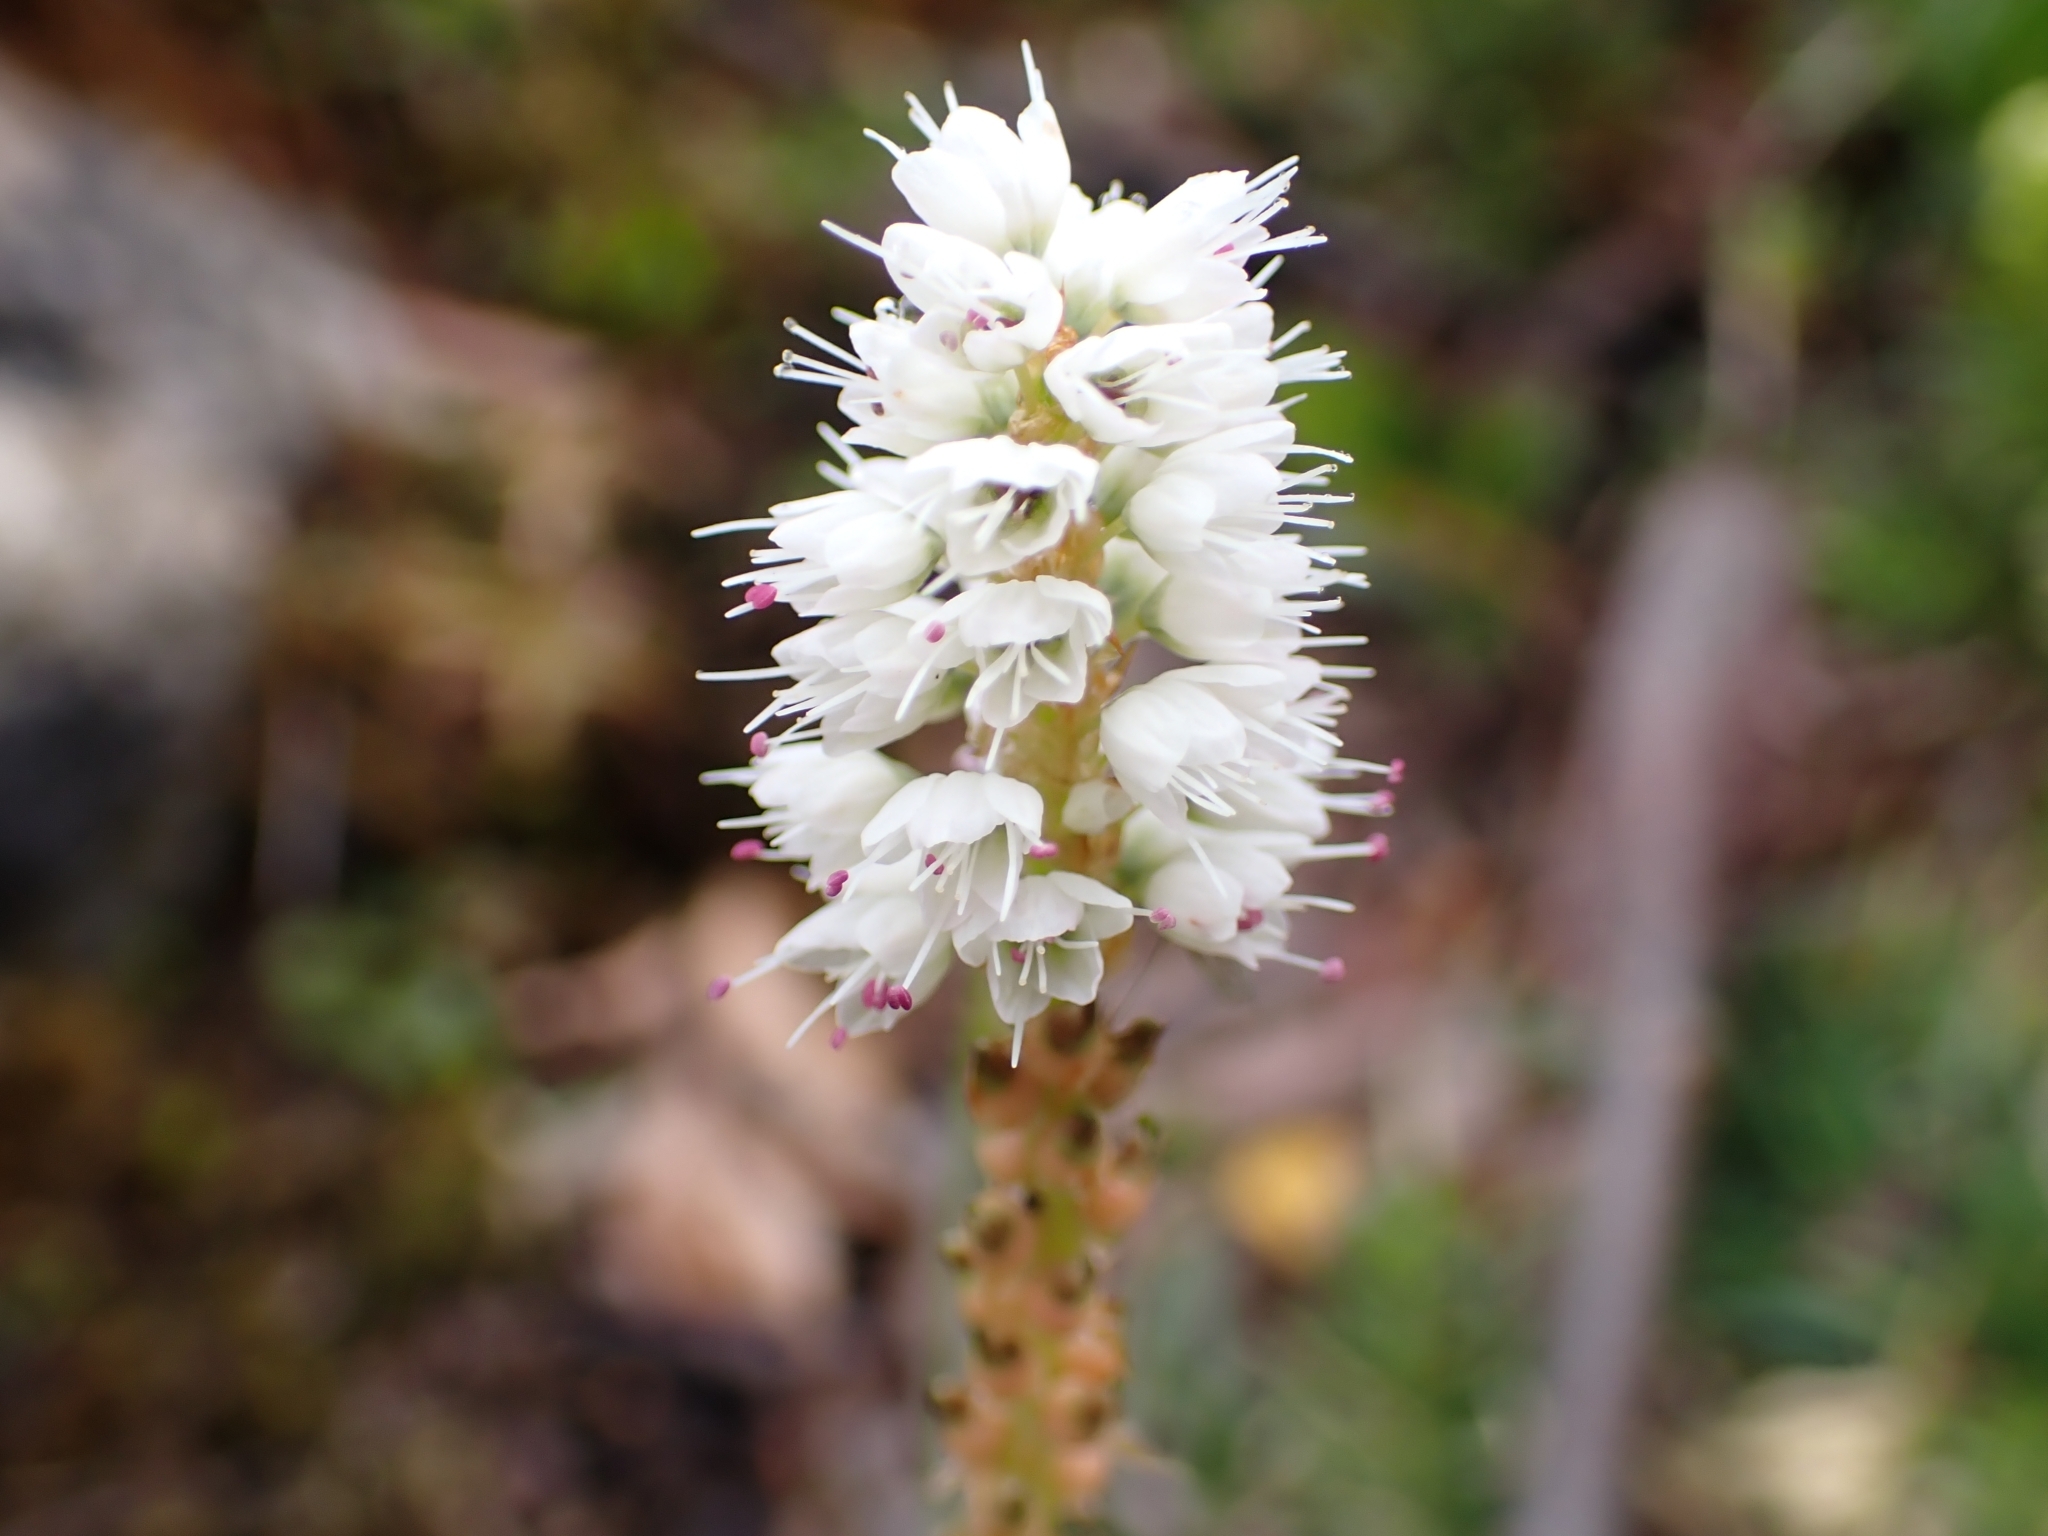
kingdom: Plantae
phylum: Tracheophyta
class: Magnoliopsida
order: Caryophyllales
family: Polygonaceae
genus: Bistorta
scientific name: Bistorta vivipara
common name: Alpine bistort
